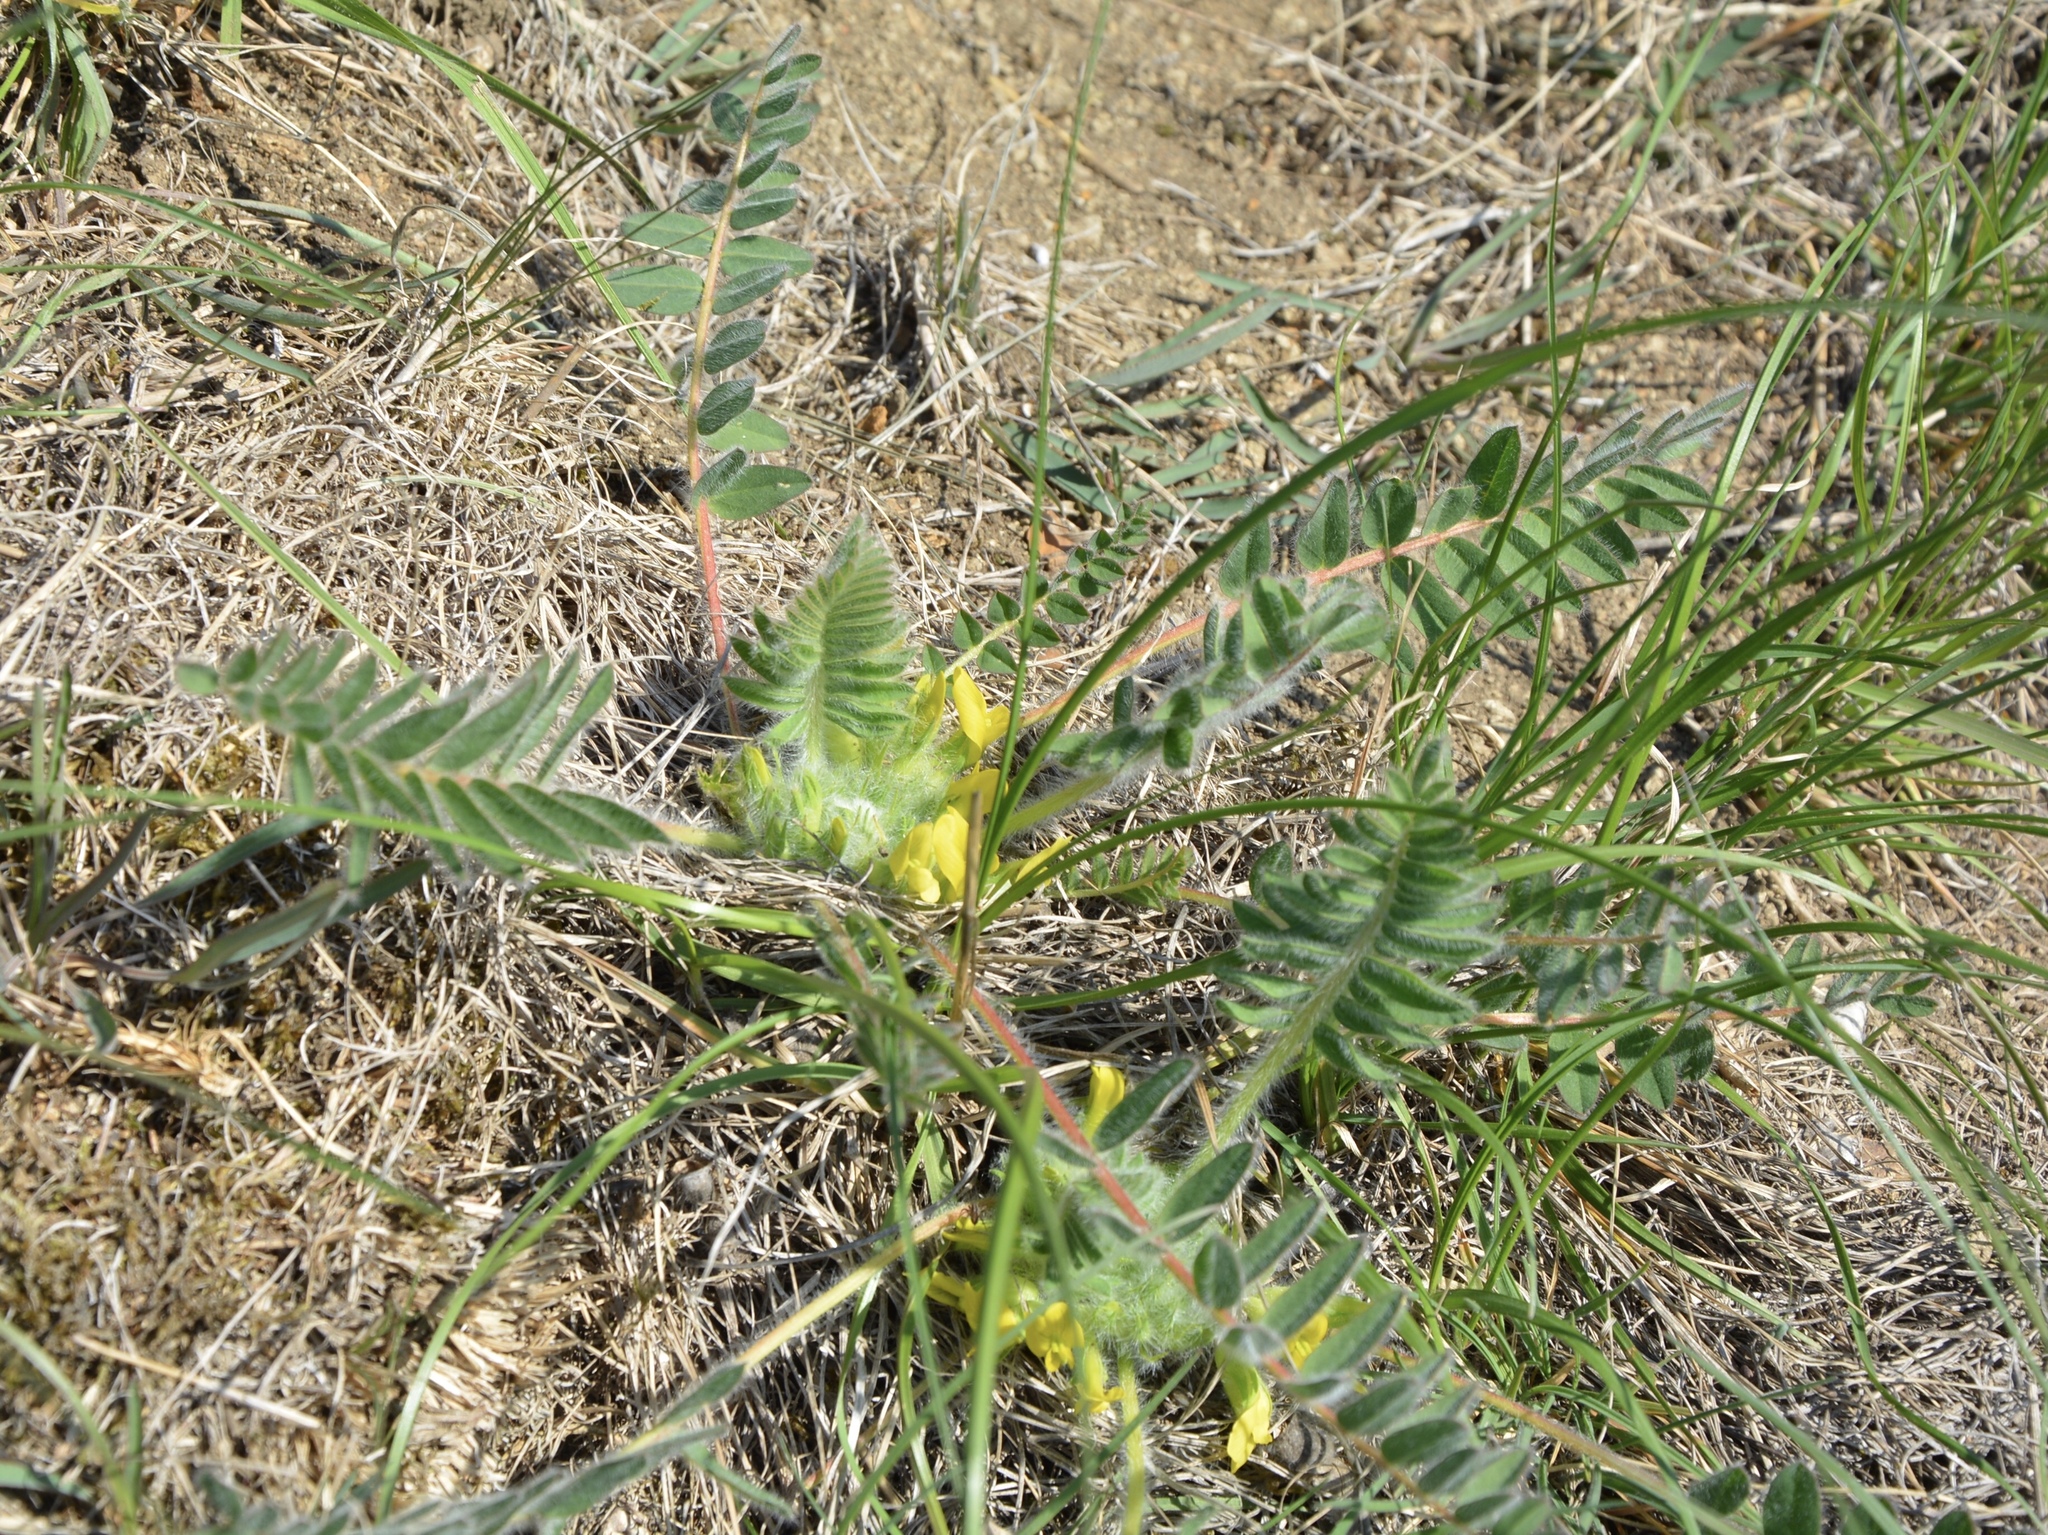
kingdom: Plantae
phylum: Tracheophyta
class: Magnoliopsida
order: Fabales
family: Fabaceae
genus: Astragalus
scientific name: Astragalus exscapus
